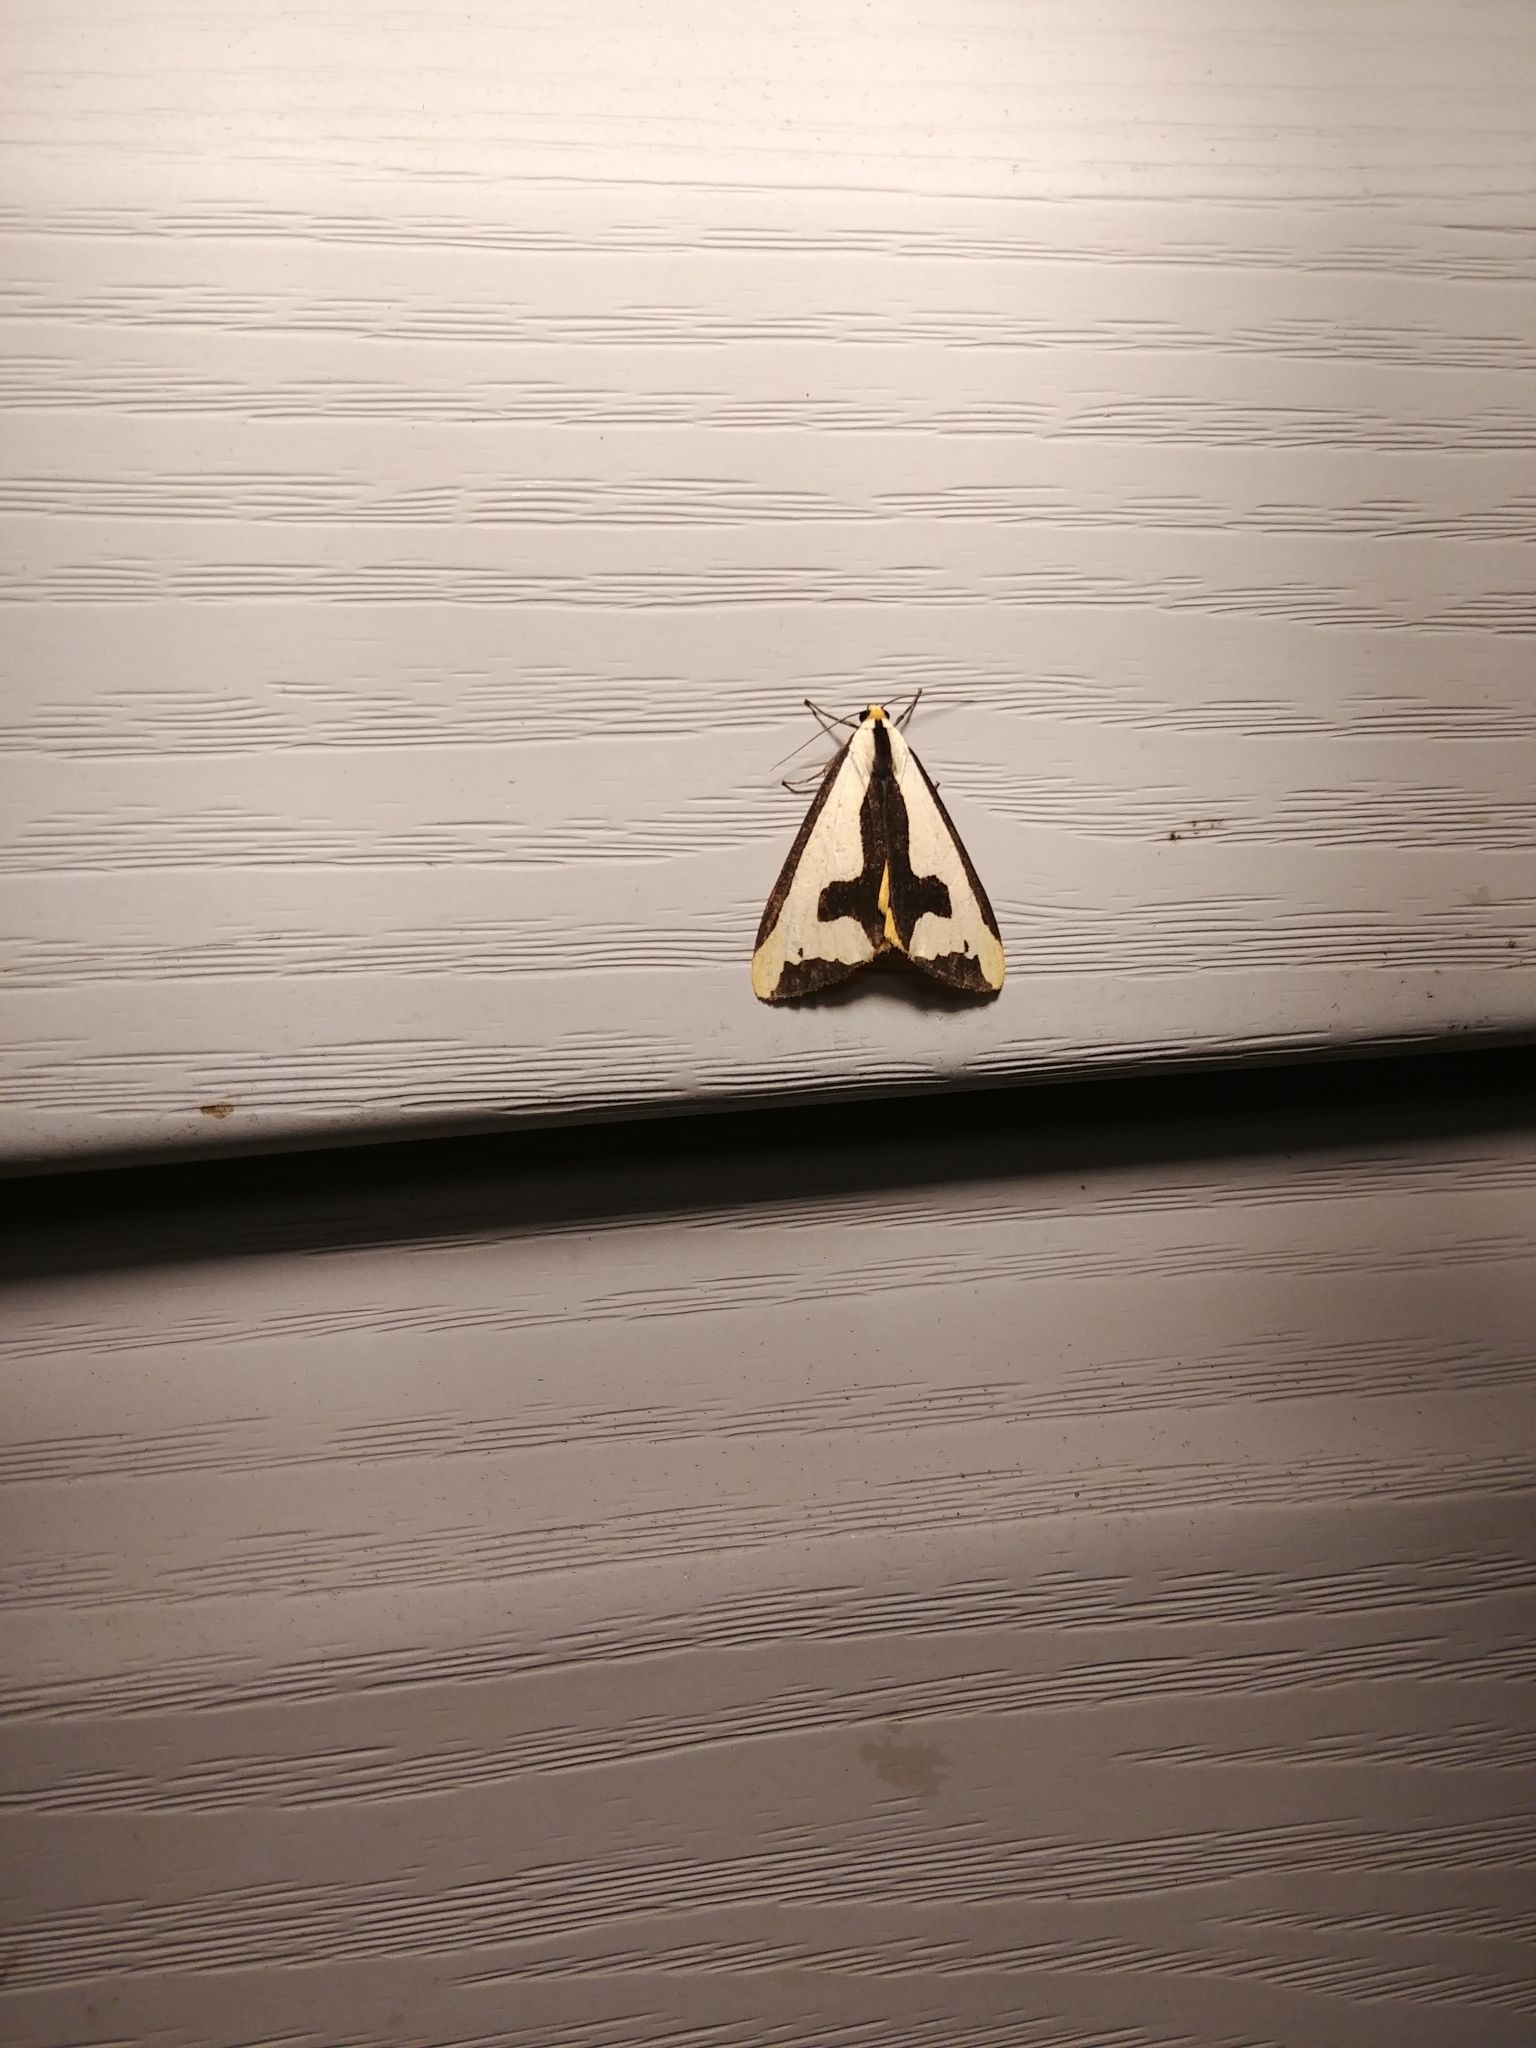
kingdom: Animalia
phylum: Arthropoda
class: Insecta
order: Lepidoptera
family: Erebidae
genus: Haploa
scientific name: Haploa clymene
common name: Clymene moth
